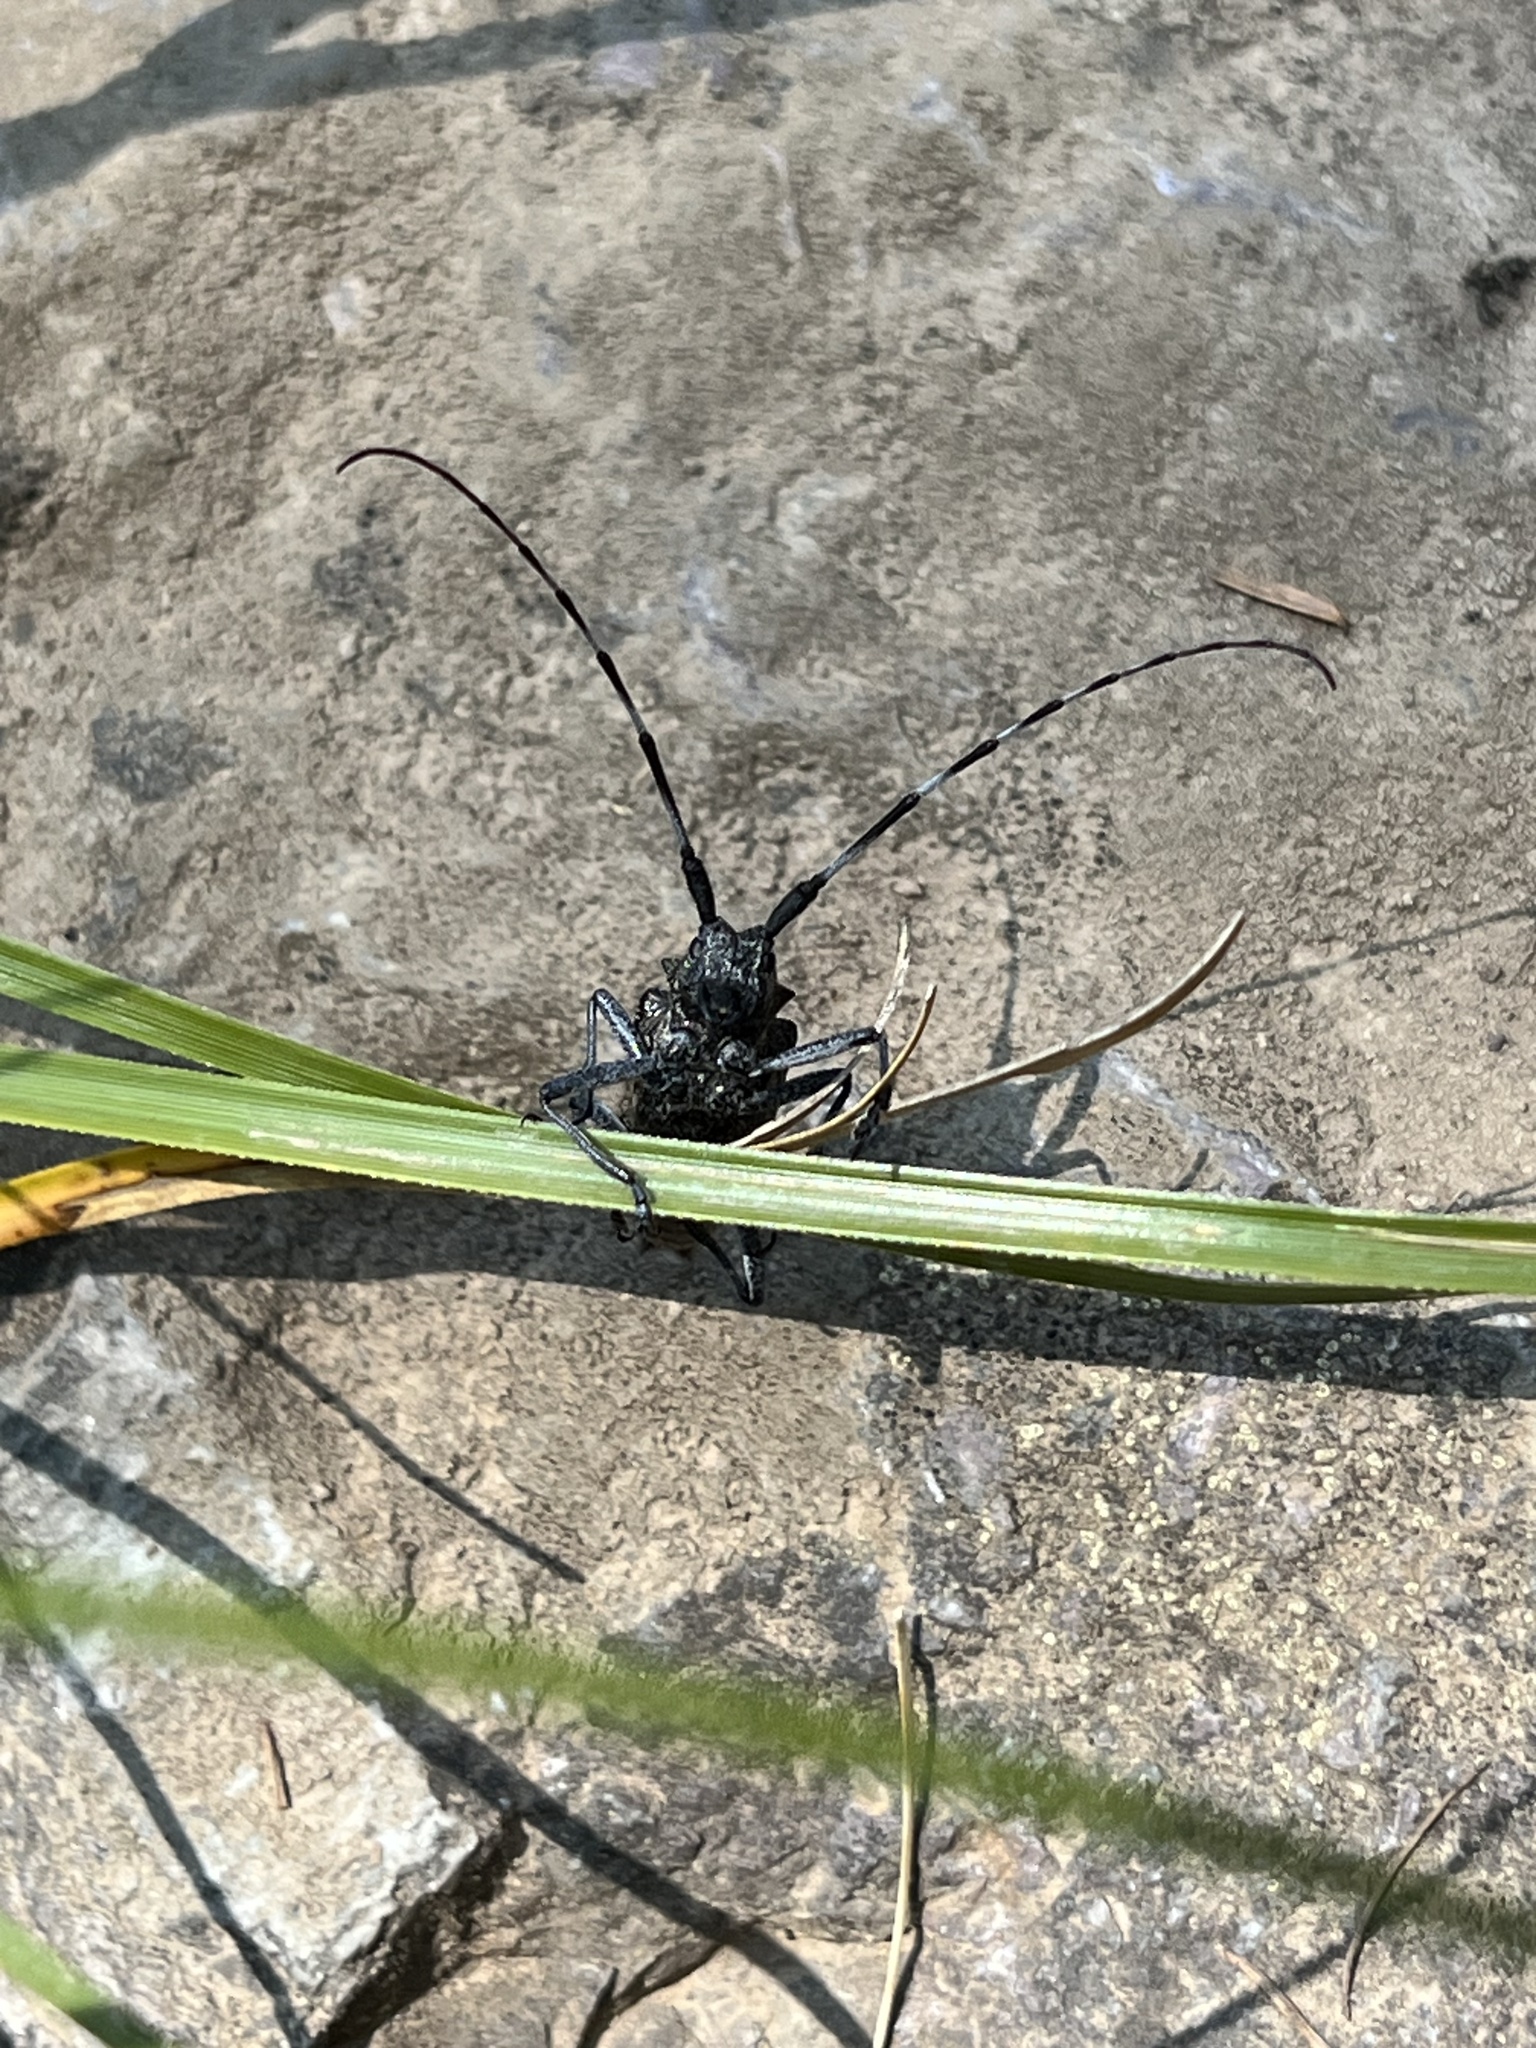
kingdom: Animalia
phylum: Arthropoda
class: Insecta
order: Coleoptera
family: Cerambycidae
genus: Monochamus
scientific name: Monochamus scutellatus
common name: White-spotted sawyer beetle
